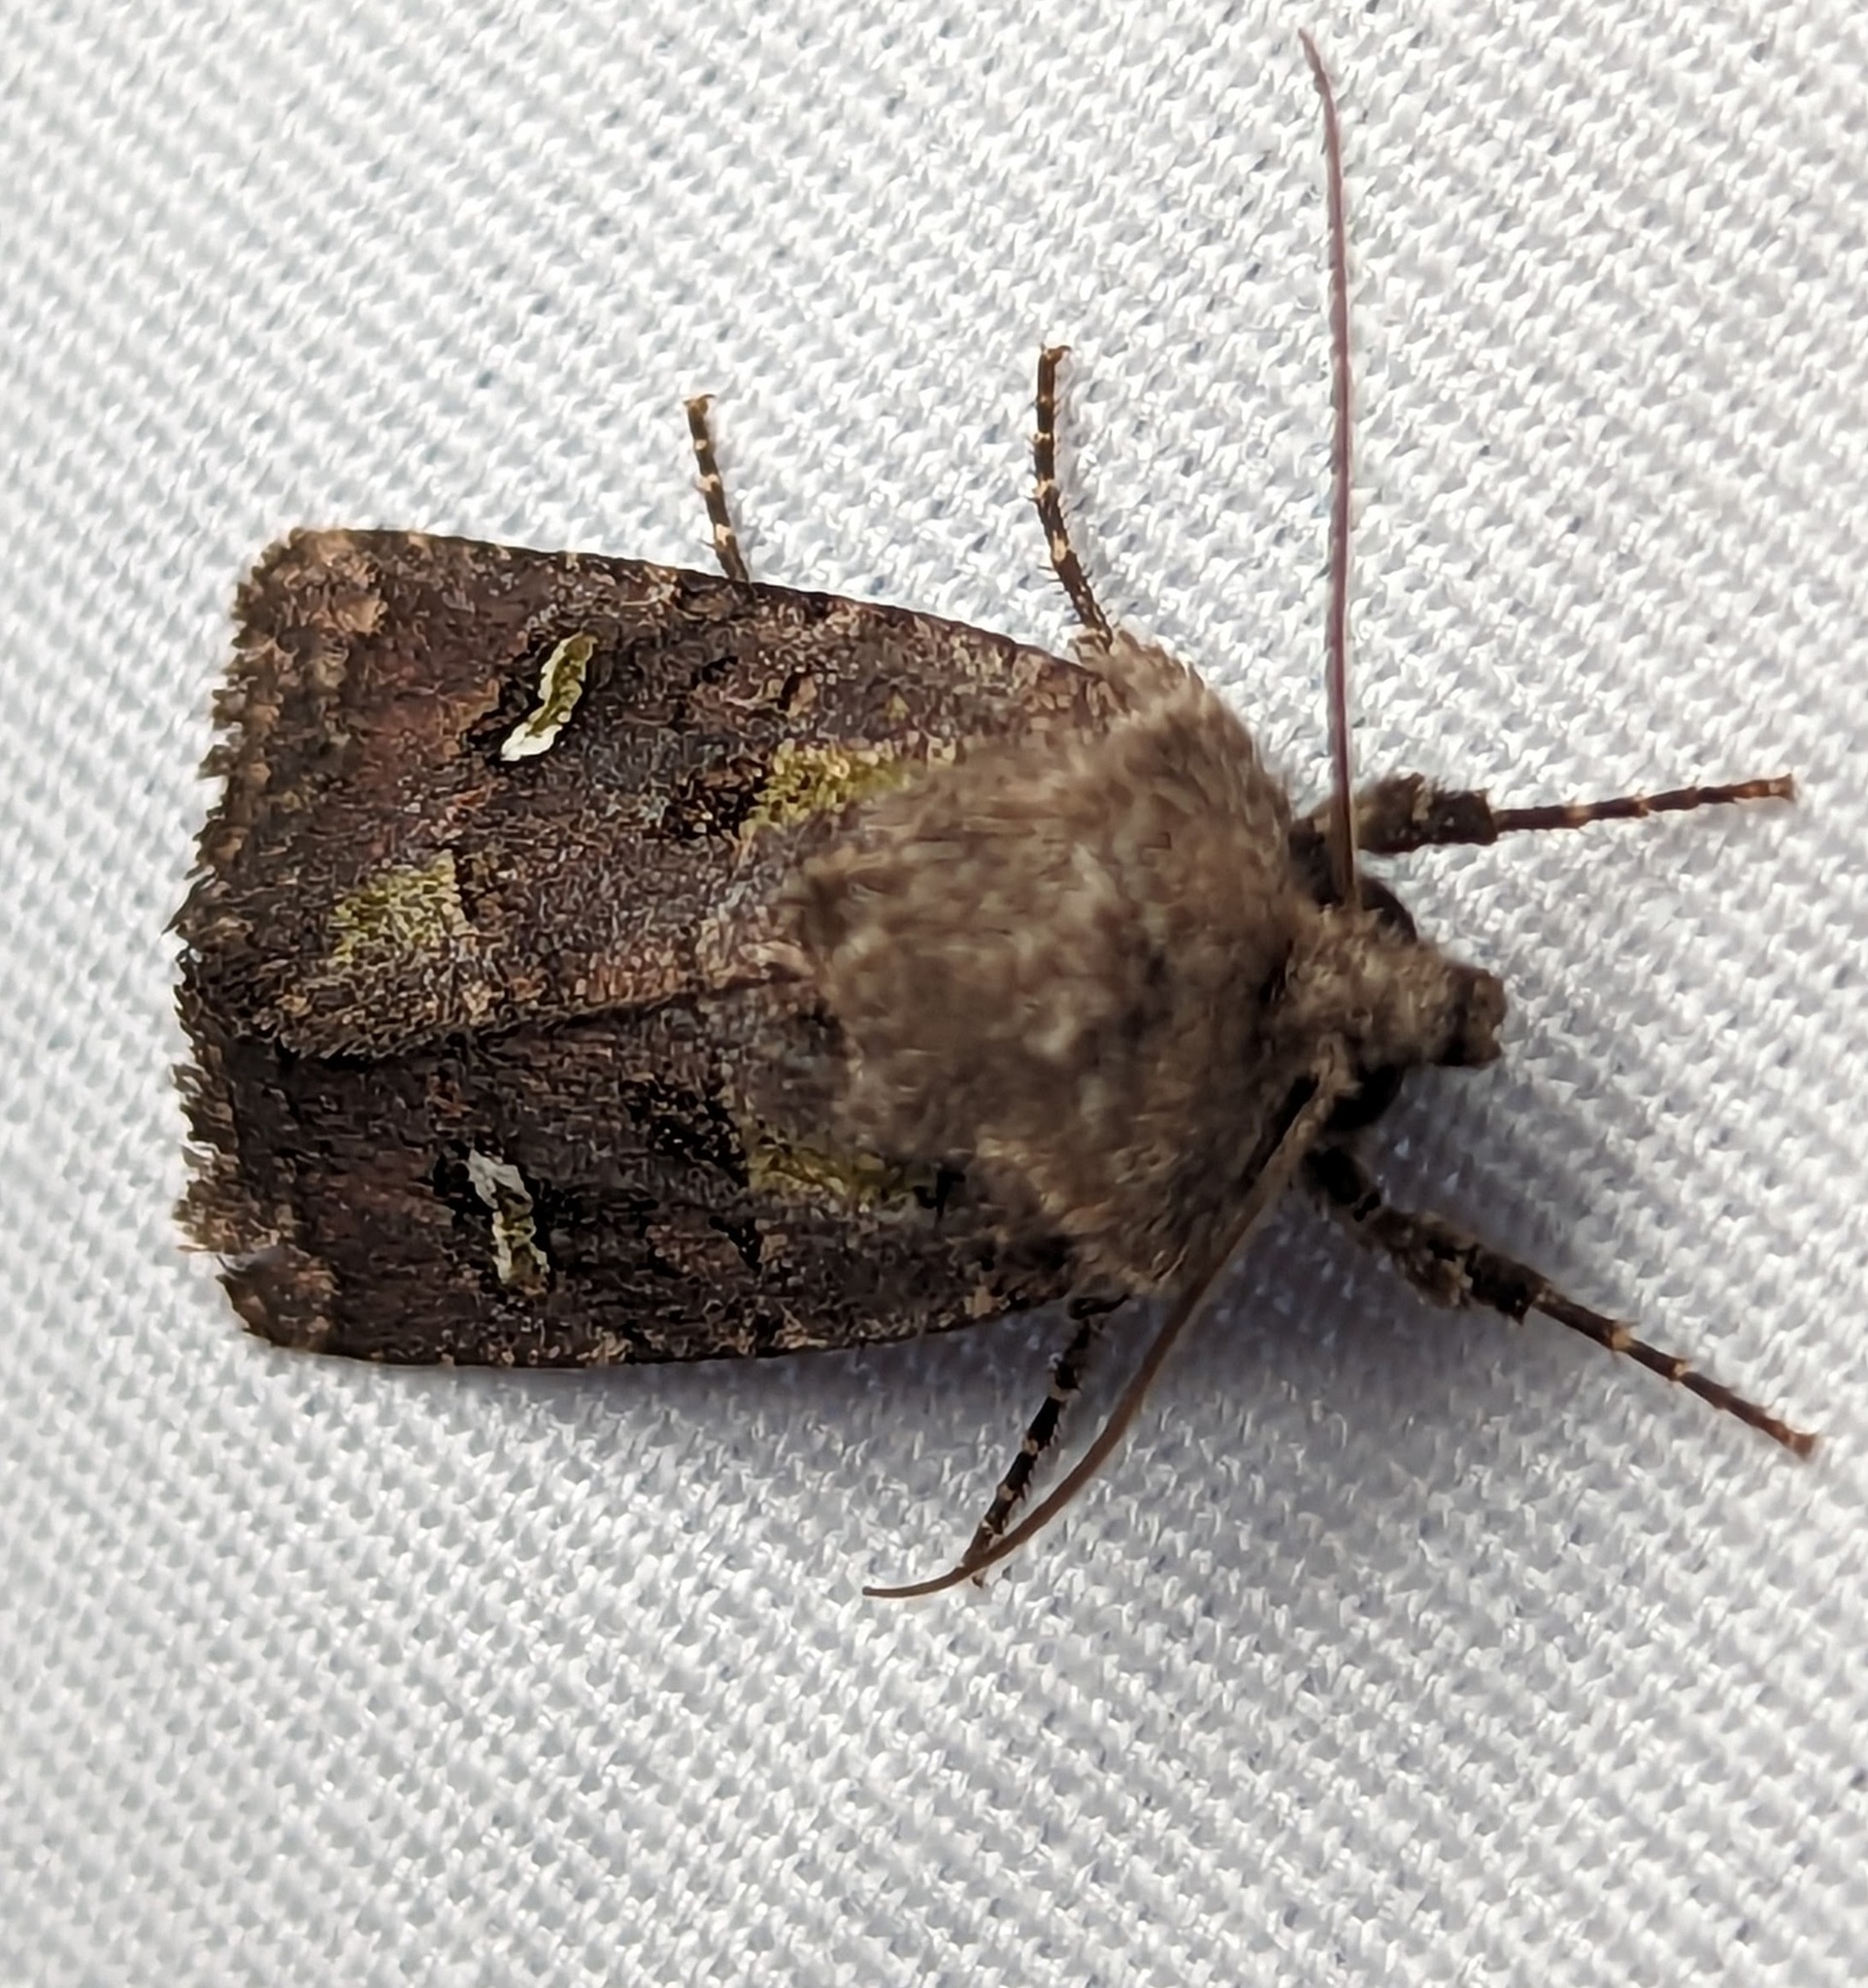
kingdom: Animalia
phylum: Arthropoda
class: Insecta
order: Lepidoptera
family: Noctuidae
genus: Lacinipolia
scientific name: Lacinipolia renigera
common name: Kidney-spotted minor
